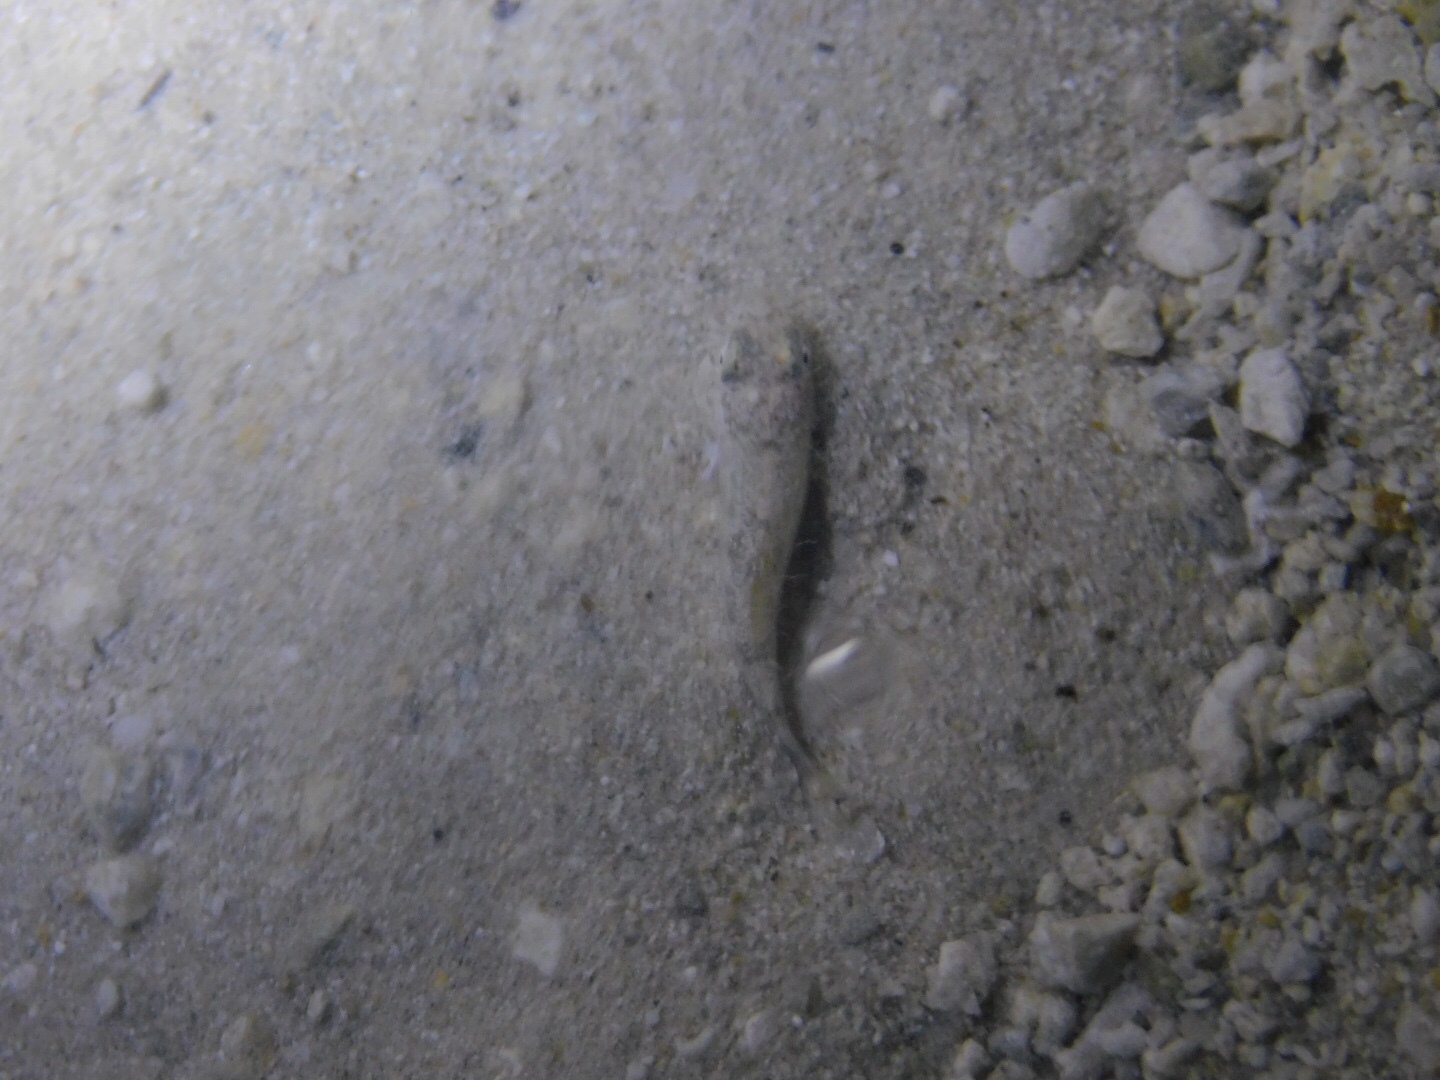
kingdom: Animalia
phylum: Chordata
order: Cyprinodontiformes
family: Cyprinodontidae
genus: Cyprinodon
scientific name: Cyprinodon variegatus
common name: Sheepshead minnow
